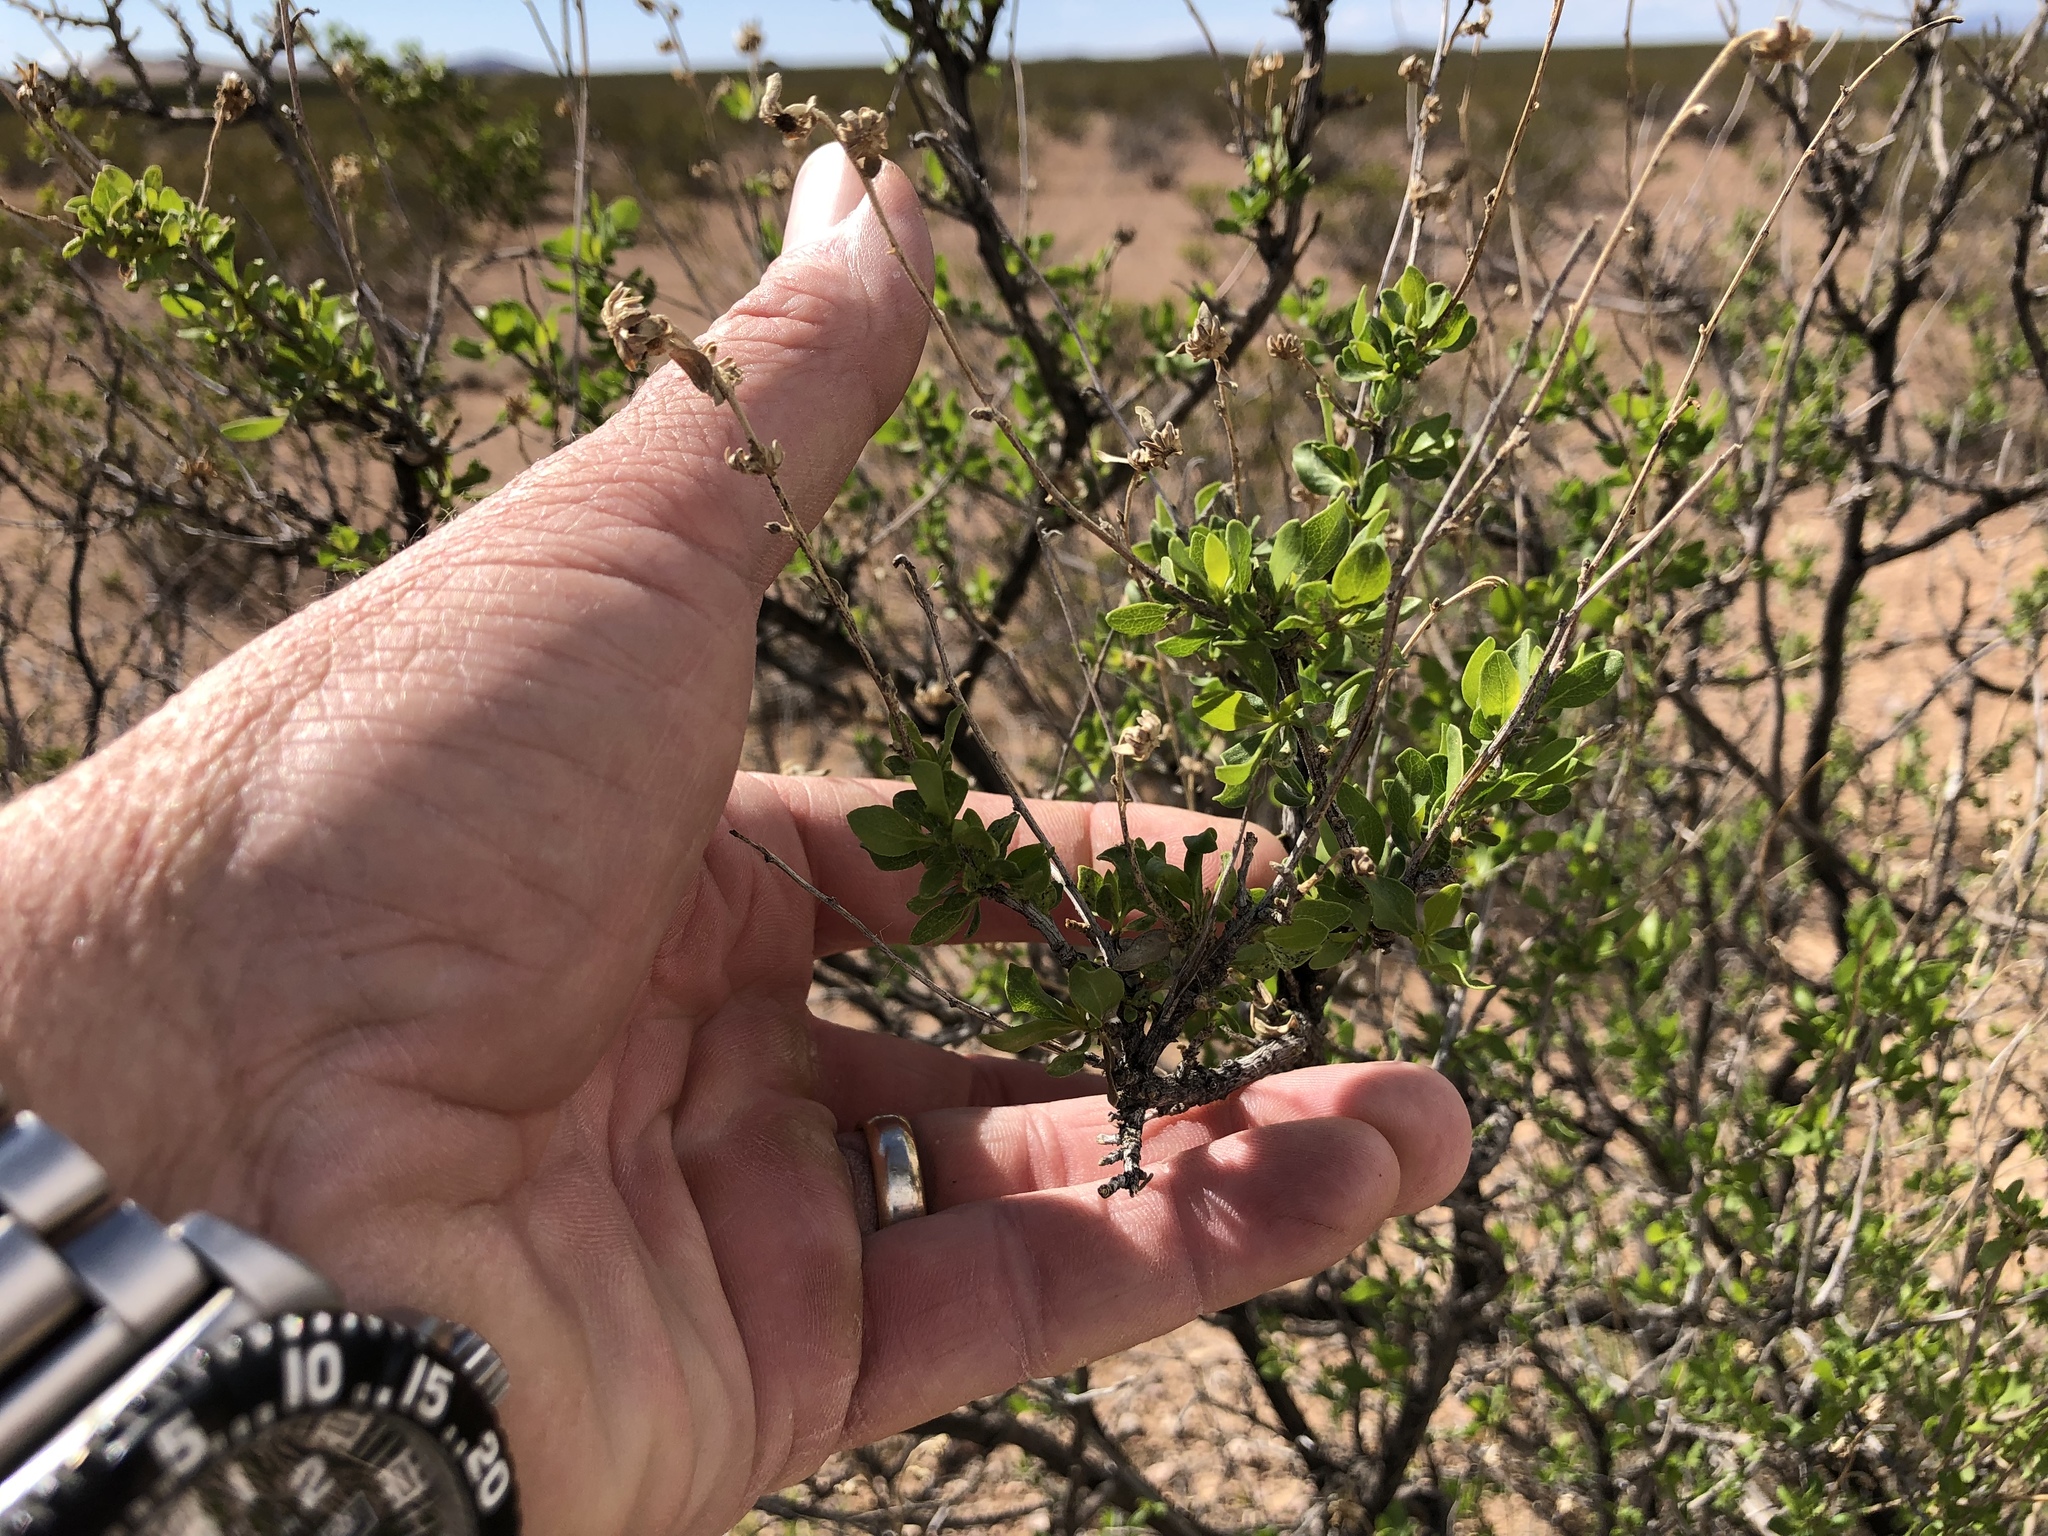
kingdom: Plantae
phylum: Tracheophyta
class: Magnoliopsida
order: Asterales
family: Asteraceae
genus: Flourensia
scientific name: Flourensia cernua
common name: Varnishbush
